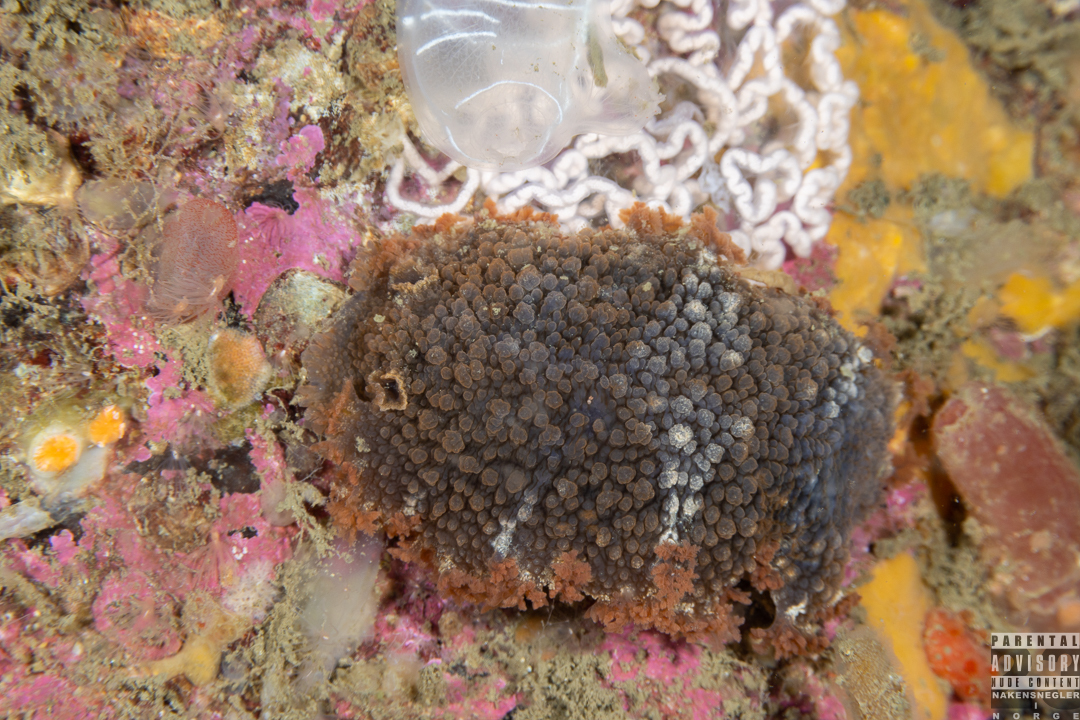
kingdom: Animalia
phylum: Mollusca
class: Gastropoda
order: Nudibranchia
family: Tritoniidae
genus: Tritonia
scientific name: Tritonia hombergii
